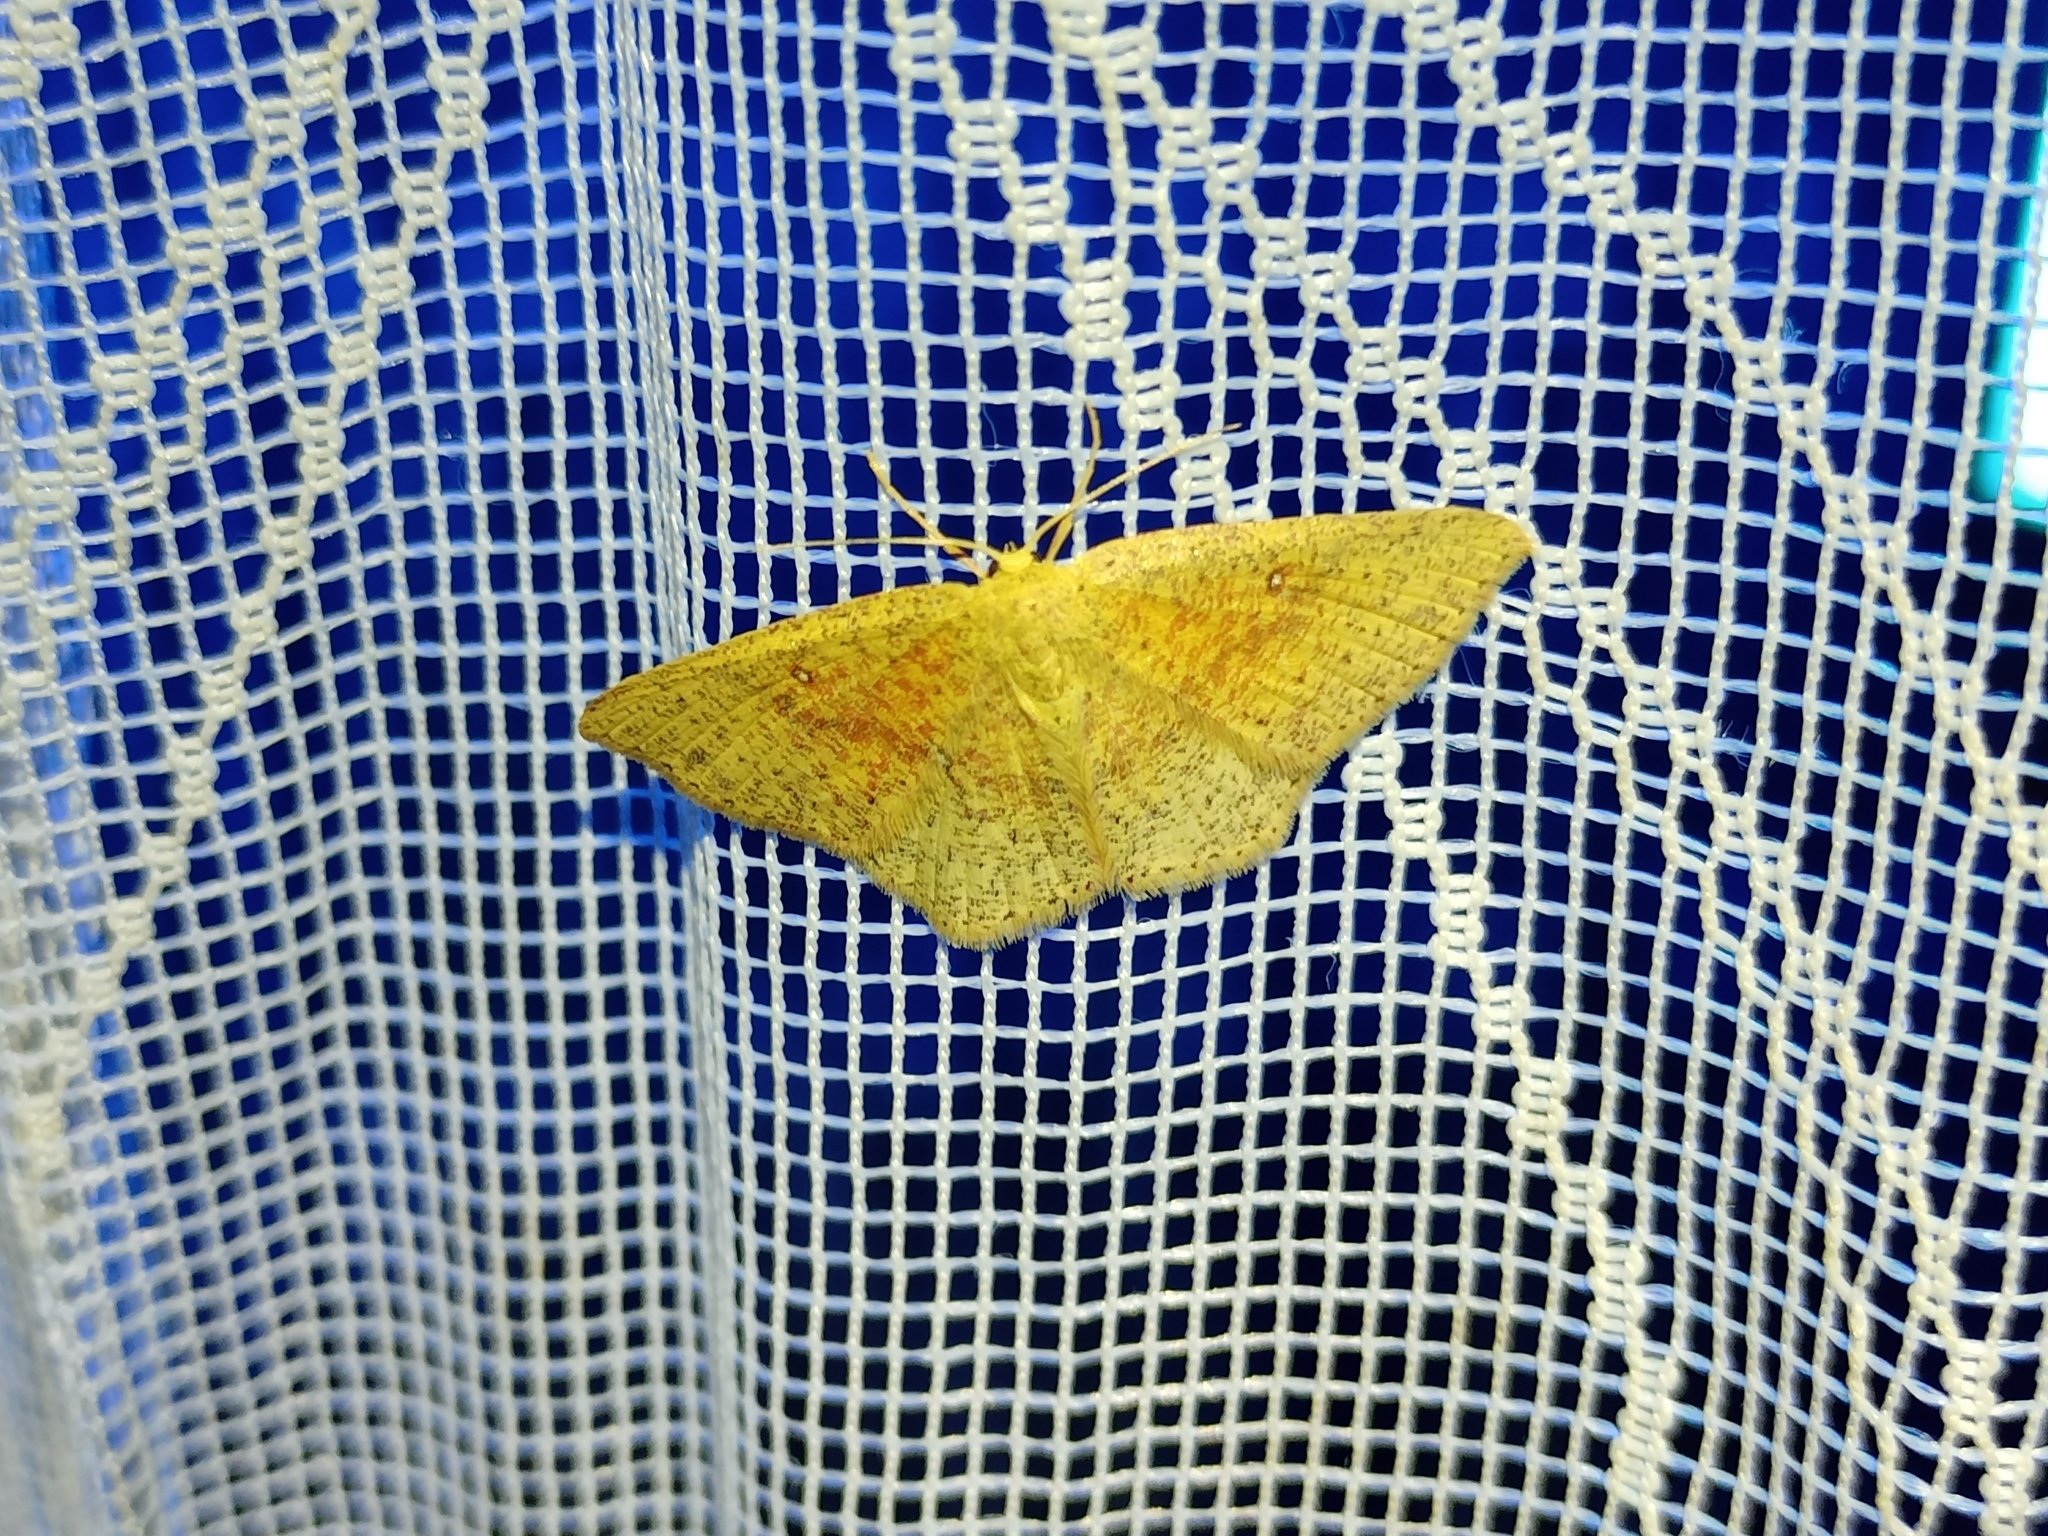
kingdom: Animalia
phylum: Arthropoda
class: Insecta
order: Lepidoptera
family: Geometridae
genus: Cyclophora
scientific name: Cyclophora porata
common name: False mocha
